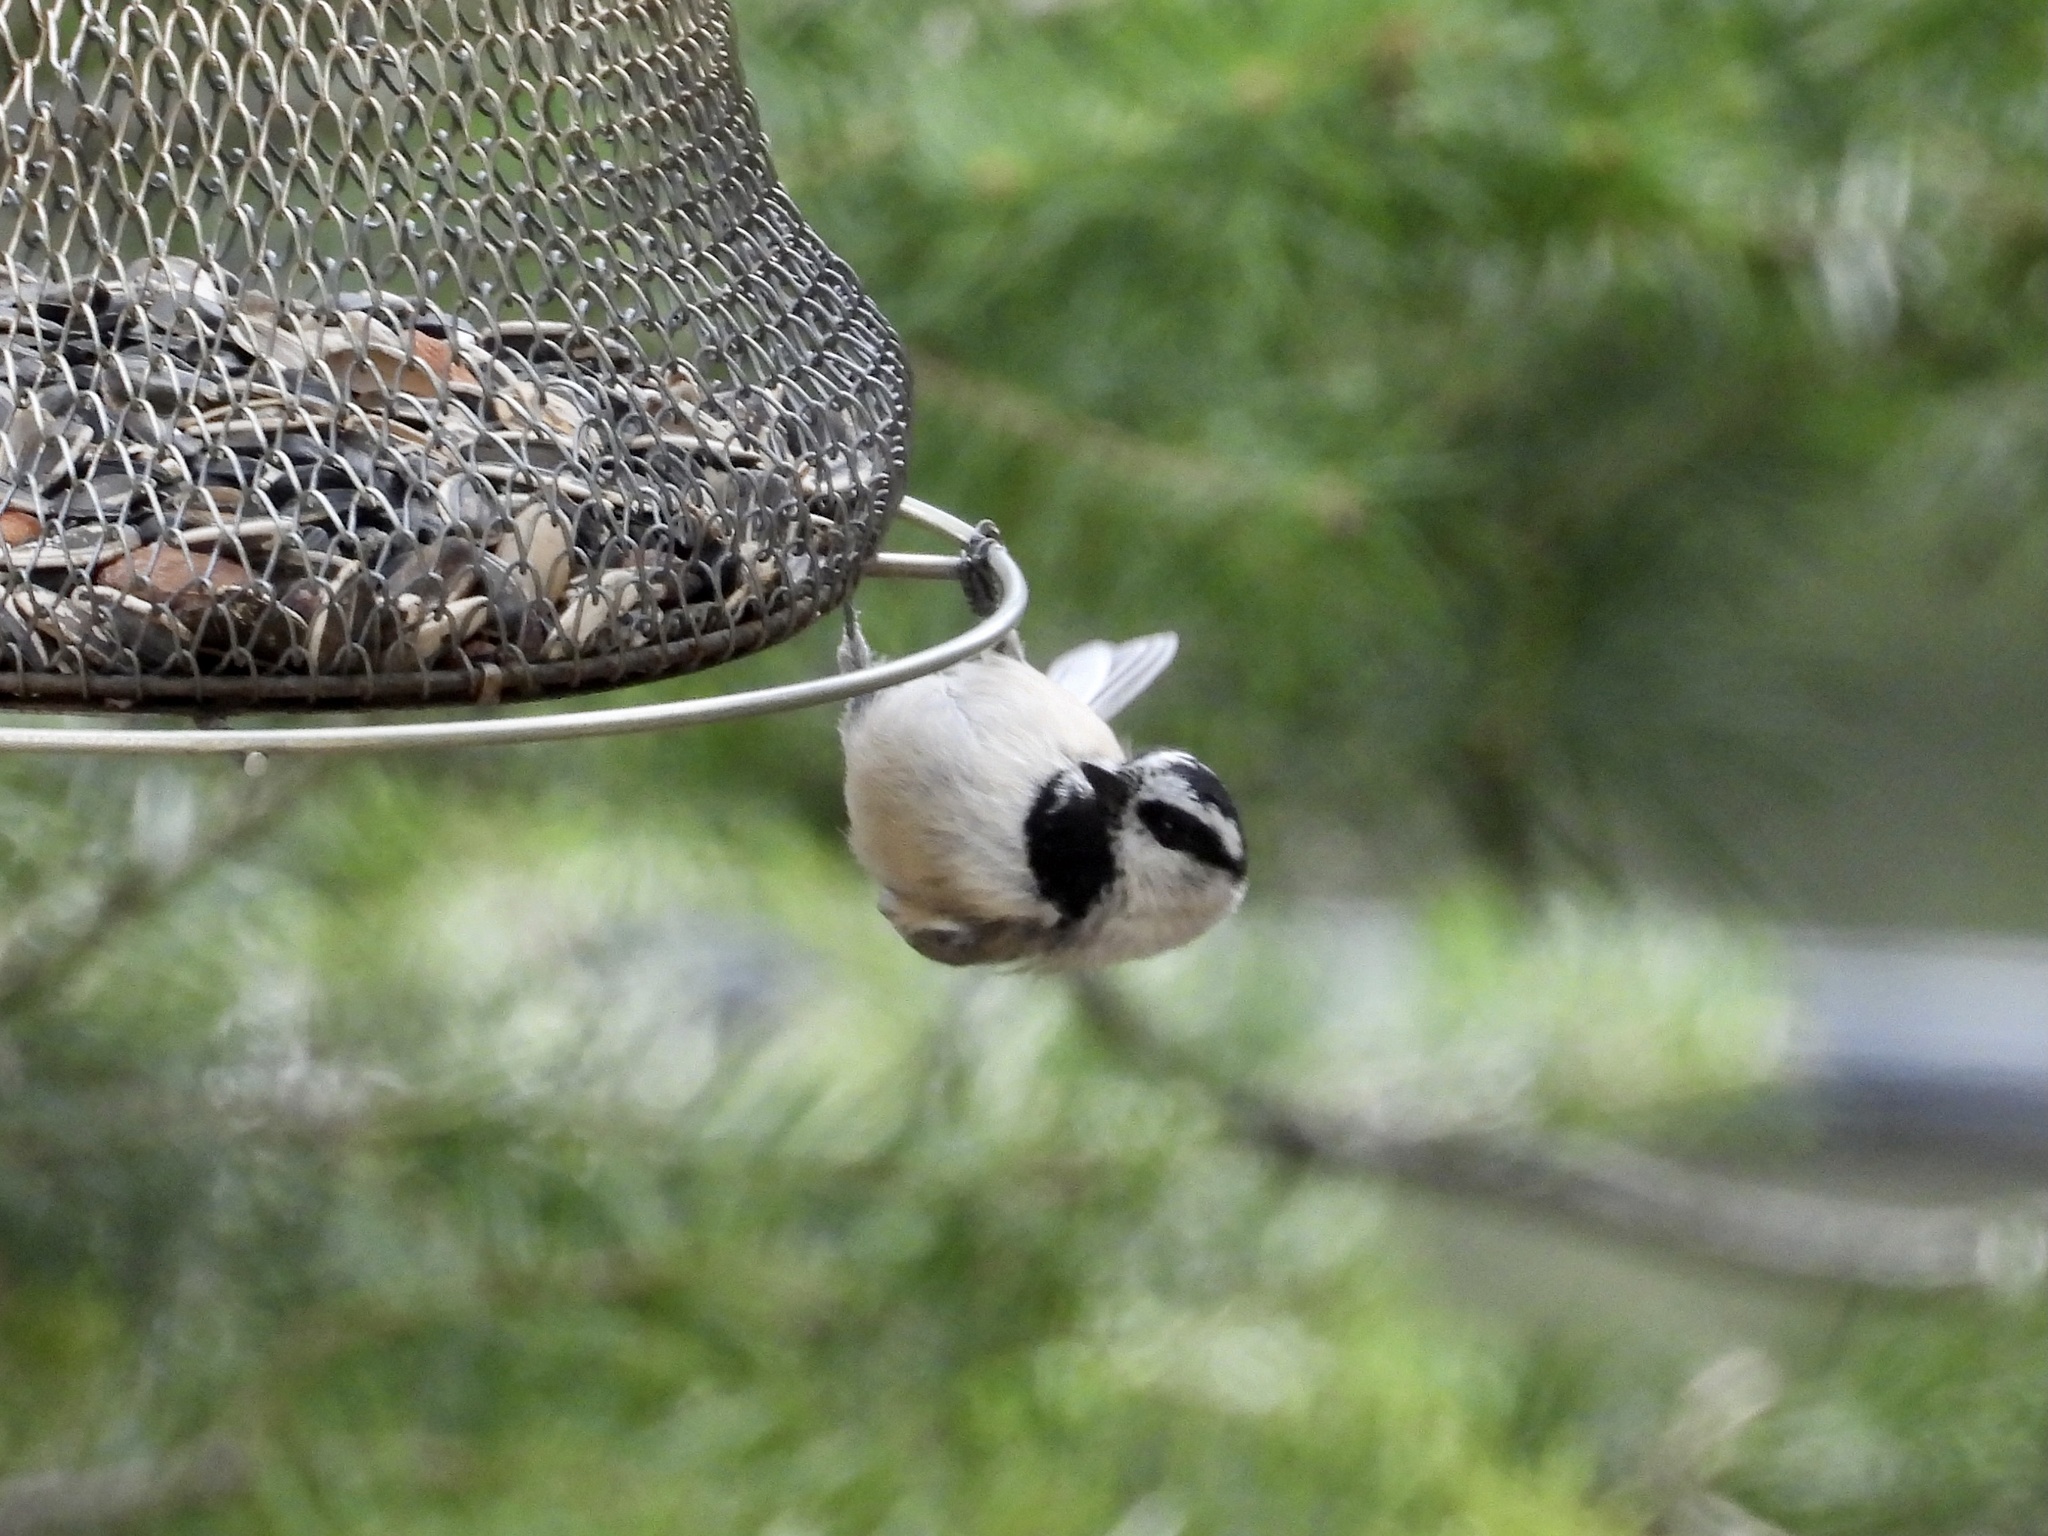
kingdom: Animalia
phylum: Chordata
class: Aves
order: Passeriformes
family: Paridae
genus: Poecile
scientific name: Poecile gambeli
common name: Mountain chickadee
